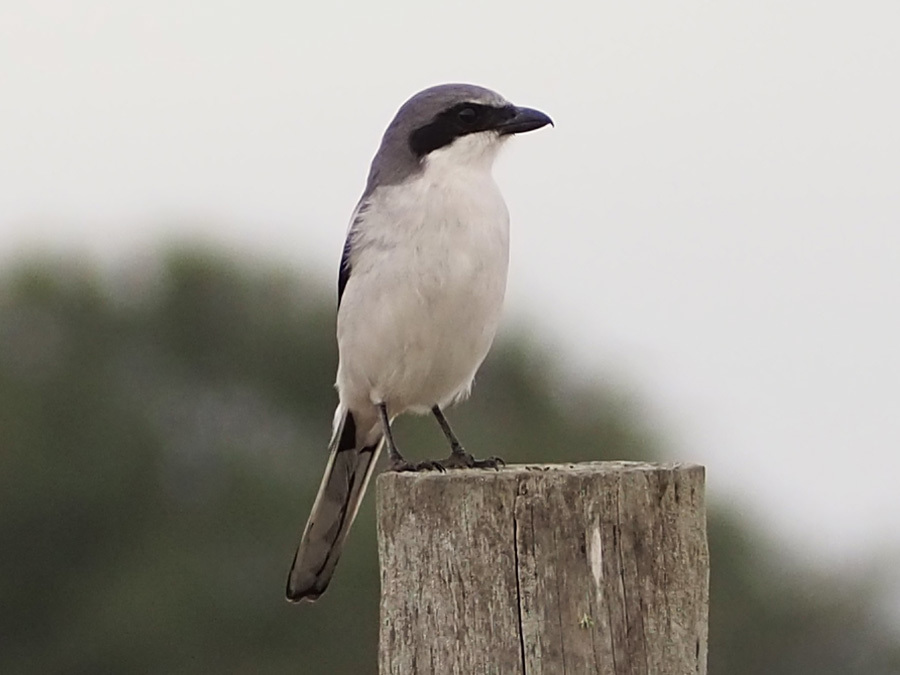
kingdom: Animalia
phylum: Chordata
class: Aves
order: Passeriformes
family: Laniidae
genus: Lanius
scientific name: Lanius ludovicianus
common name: Loggerhead shrike
